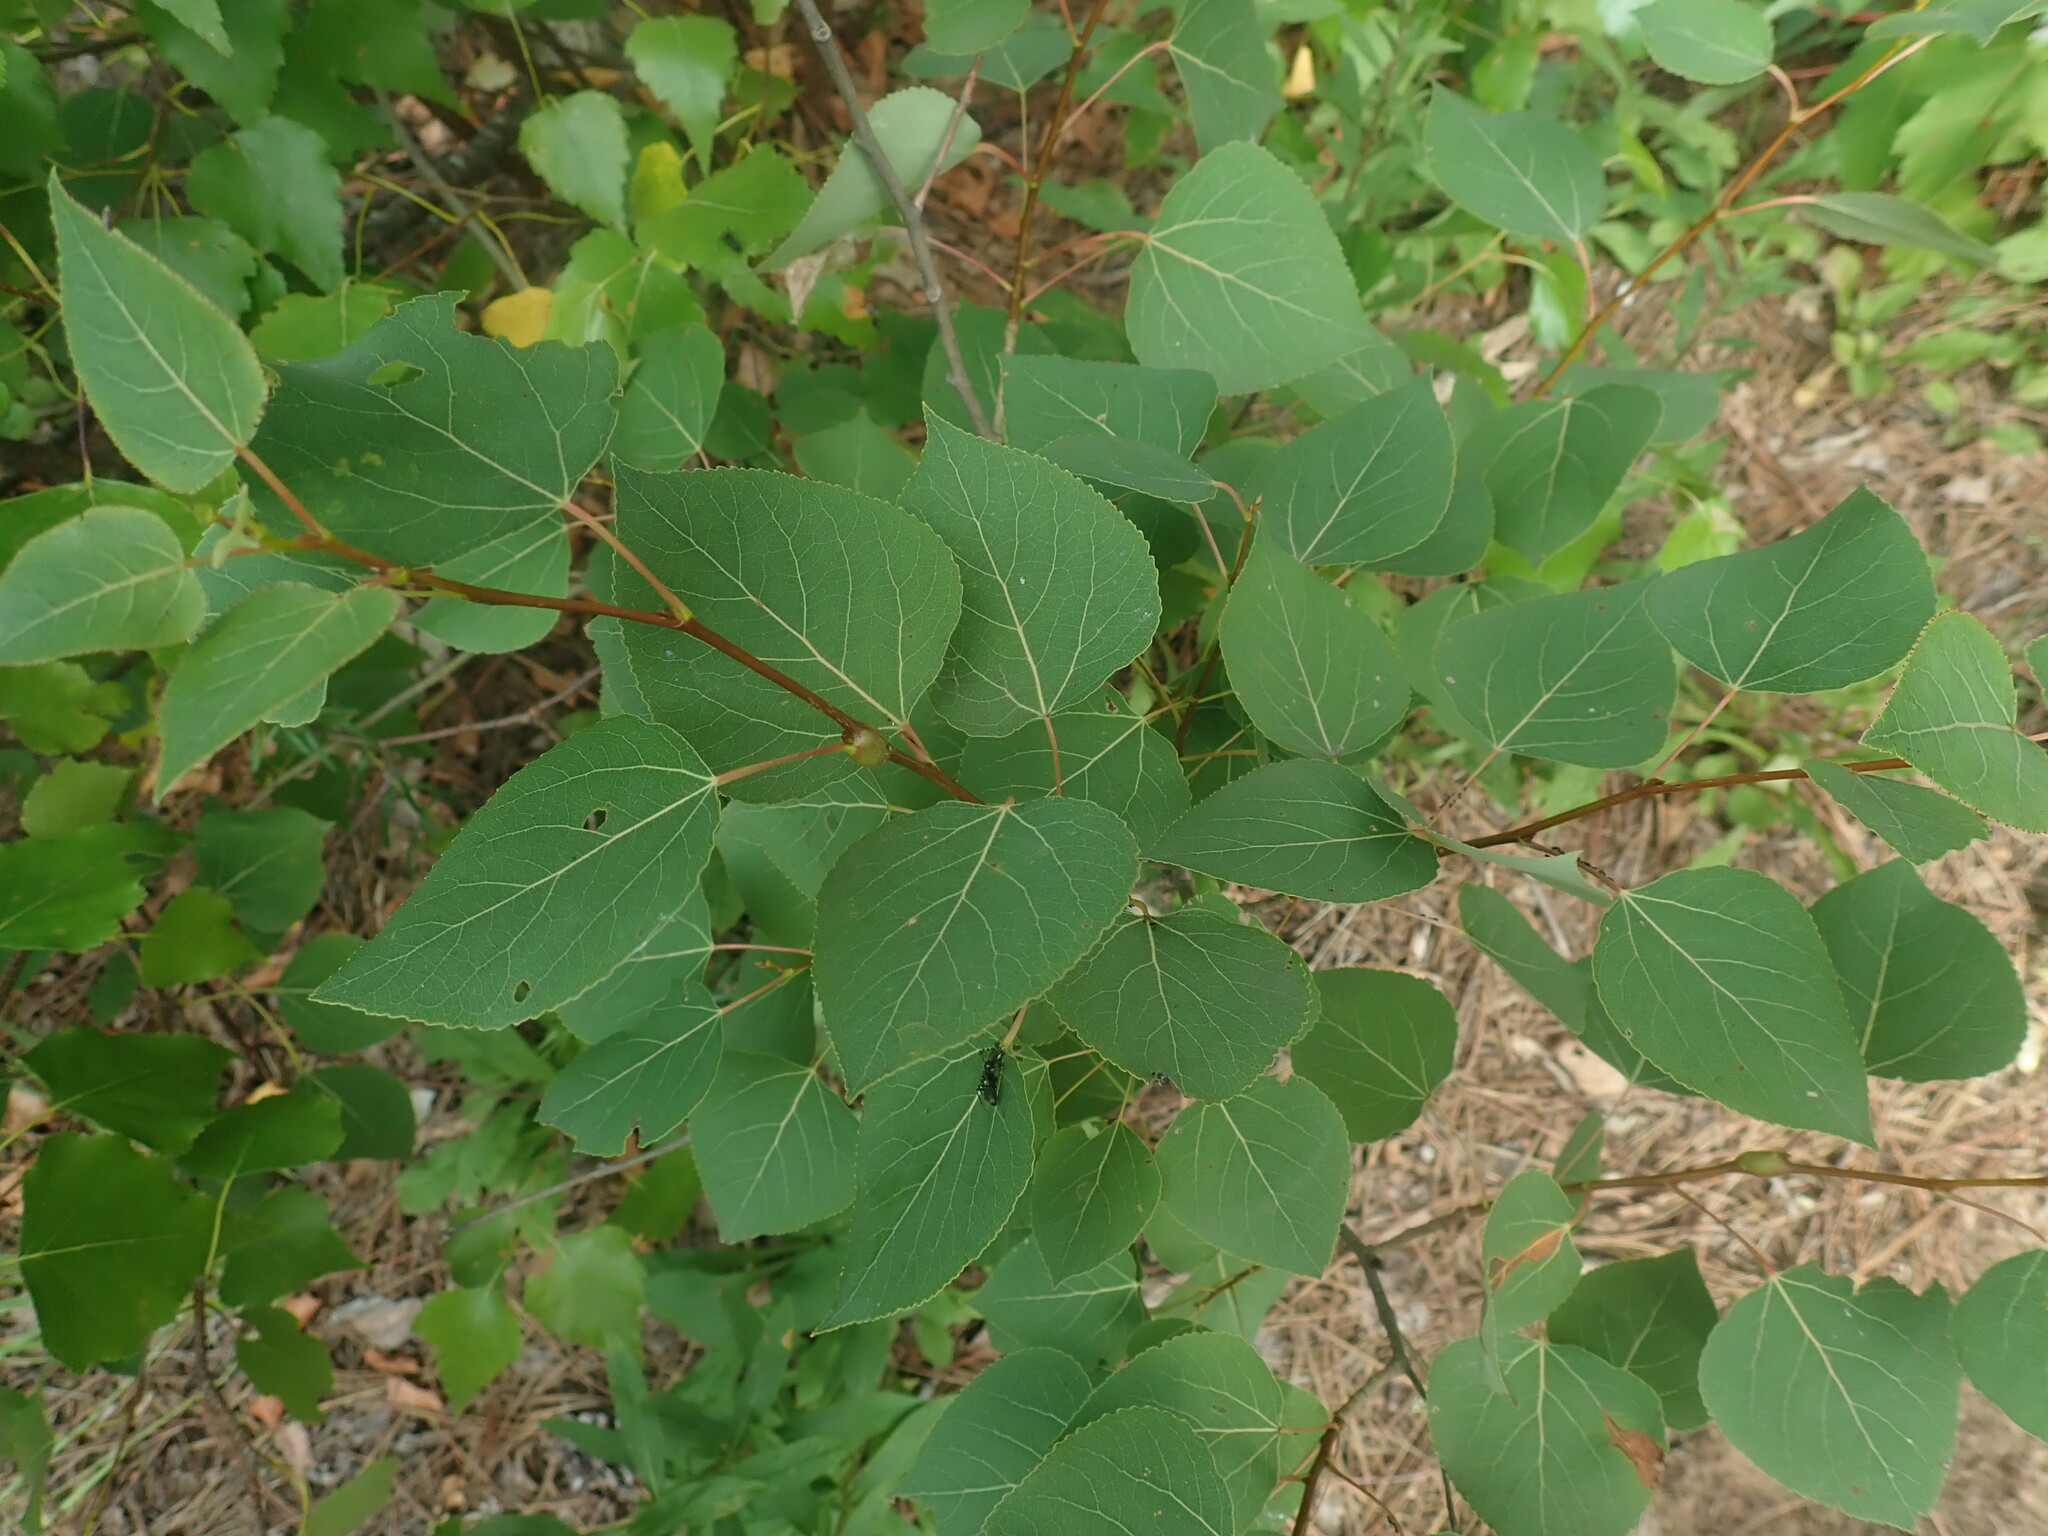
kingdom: Plantae
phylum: Tracheophyta
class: Magnoliopsida
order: Malpighiales
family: Salicaceae
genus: Populus
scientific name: Populus tremuloides
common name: Quaking aspen
